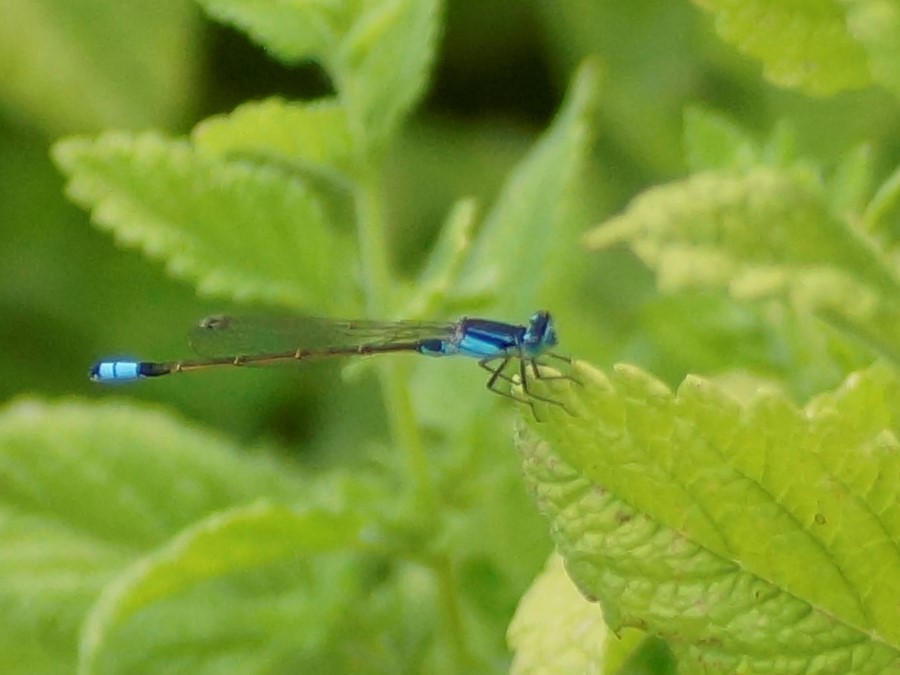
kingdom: Animalia
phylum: Arthropoda
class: Insecta
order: Odonata
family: Coenagrionidae
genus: Ischnura
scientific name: Ischnura heterosticta
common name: Common bluetail
